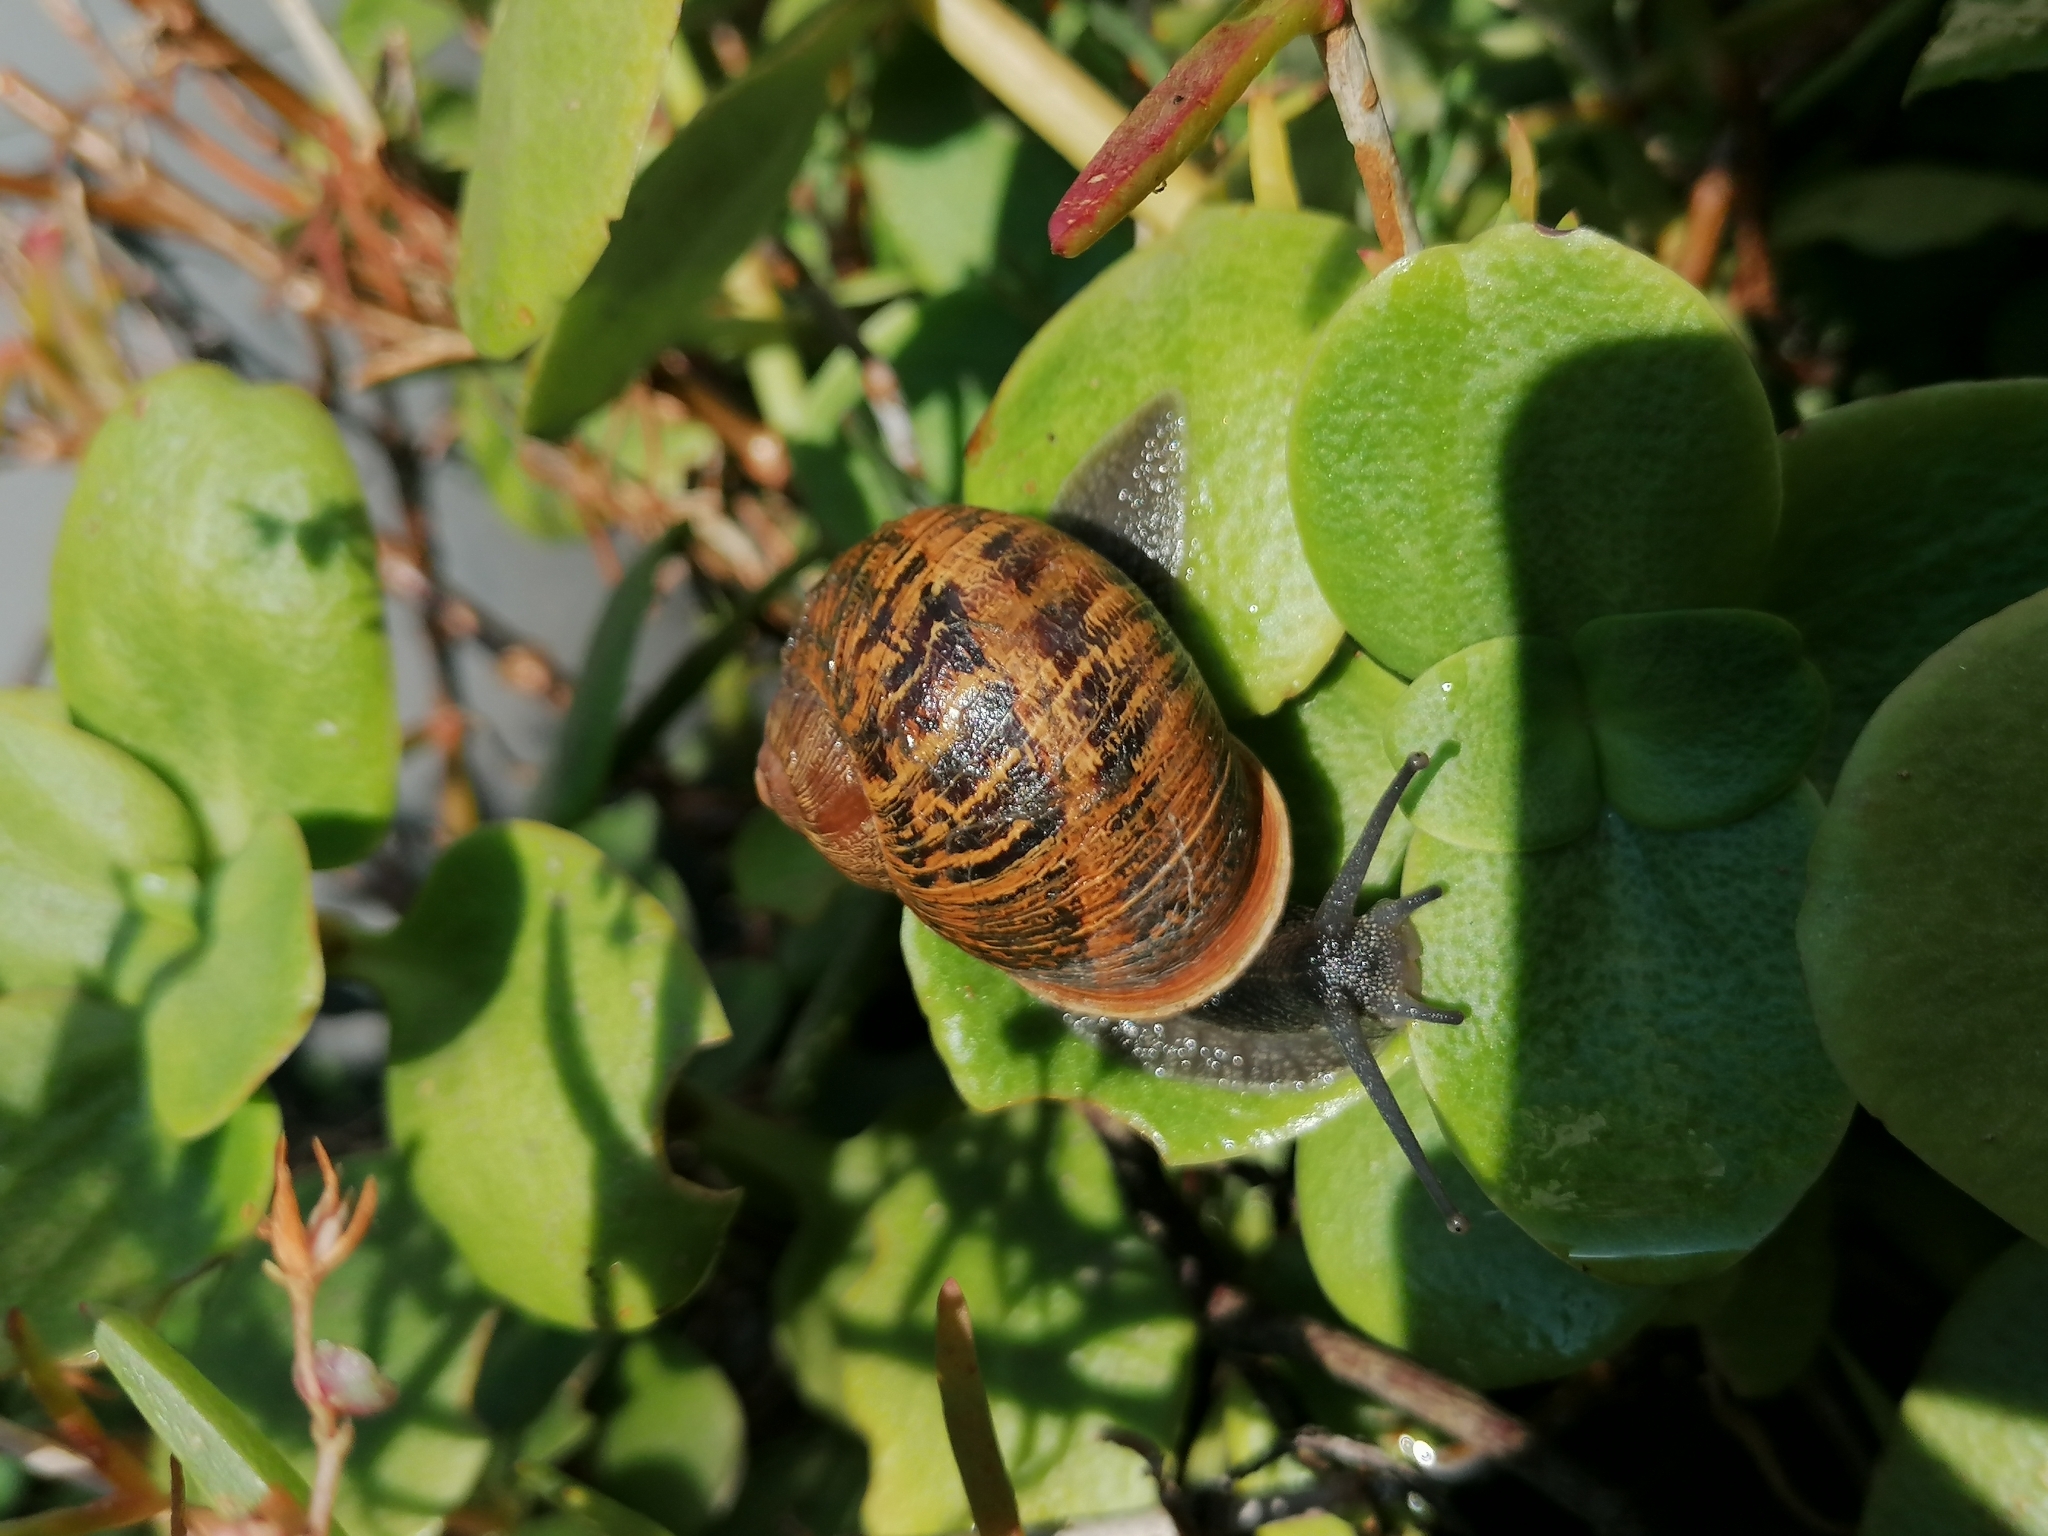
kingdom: Animalia
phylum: Mollusca
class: Gastropoda
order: Stylommatophora
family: Helicidae
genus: Cornu
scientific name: Cornu aspersum
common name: Brown garden snail
